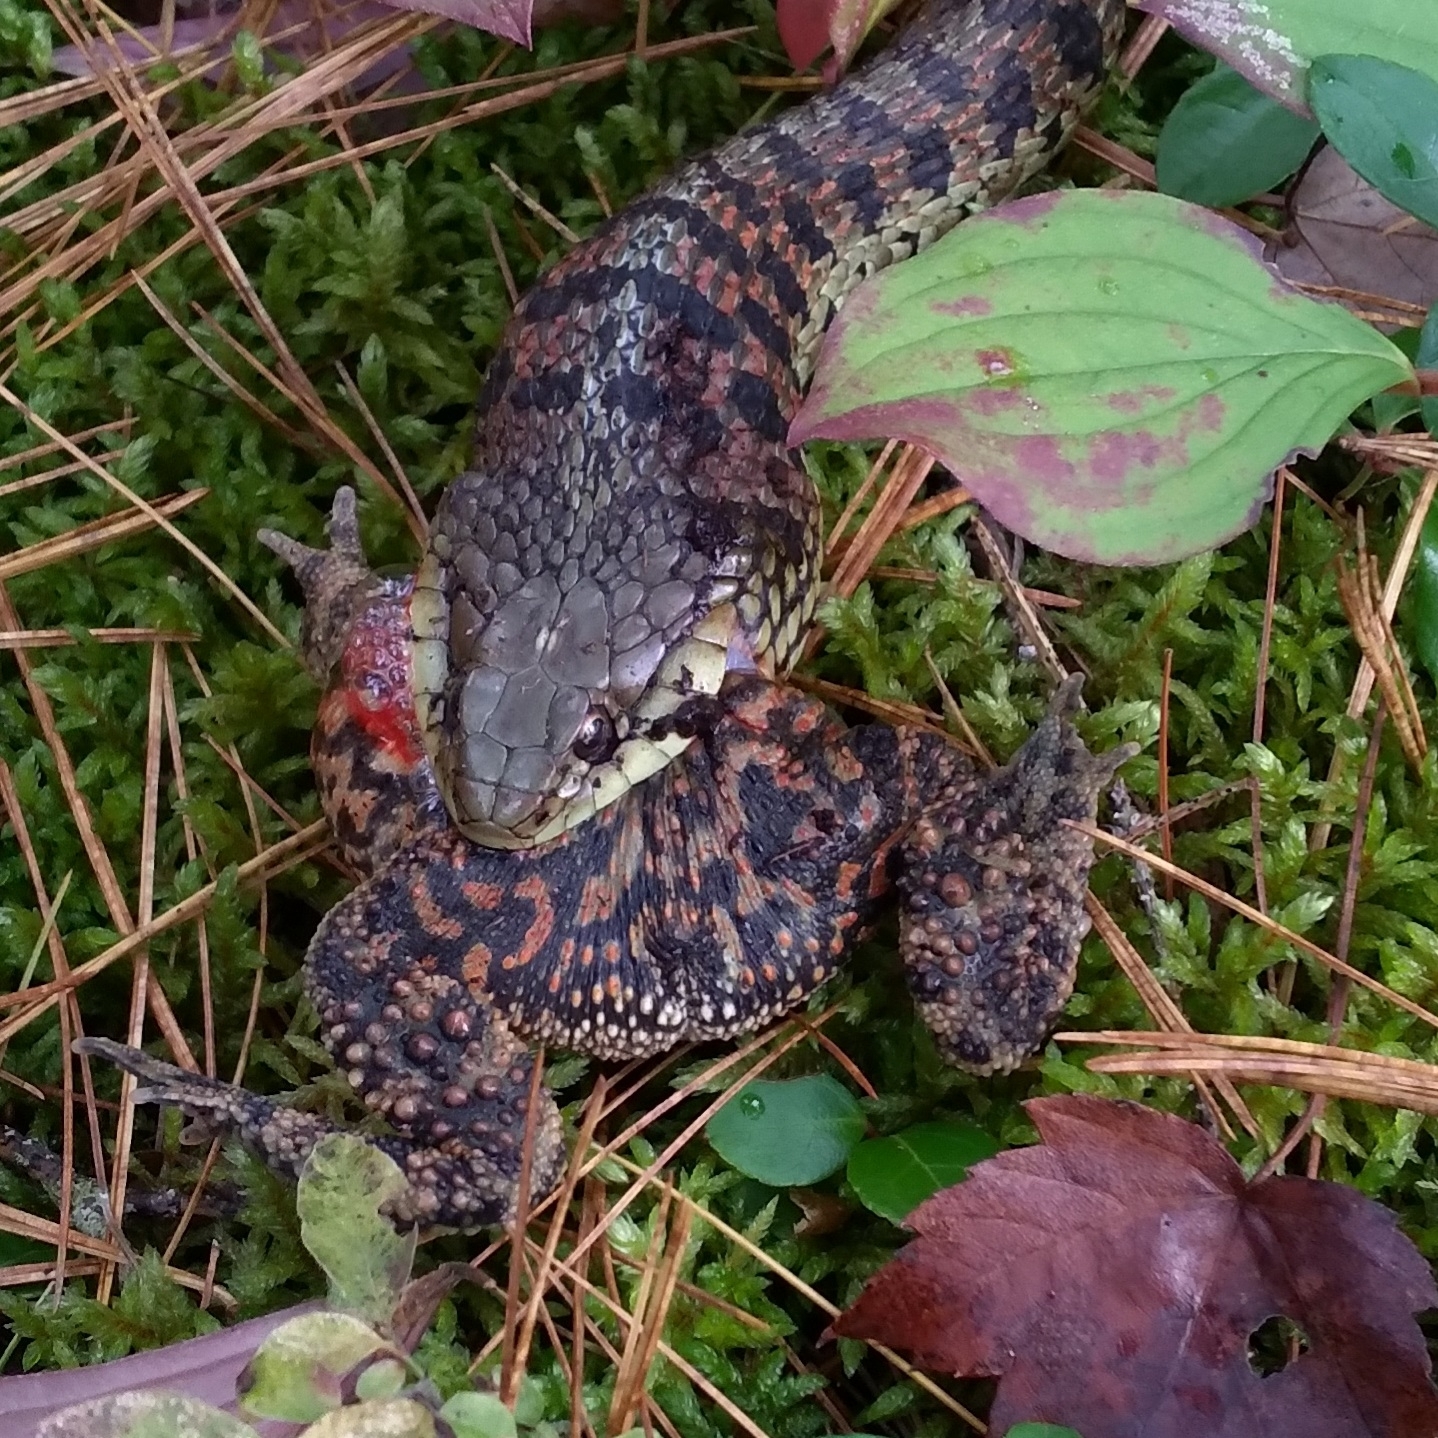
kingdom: Animalia
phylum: Chordata
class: Squamata
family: Colubridae
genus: Thamnophis
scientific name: Thamnophis sirtalis
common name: Common garter snake
